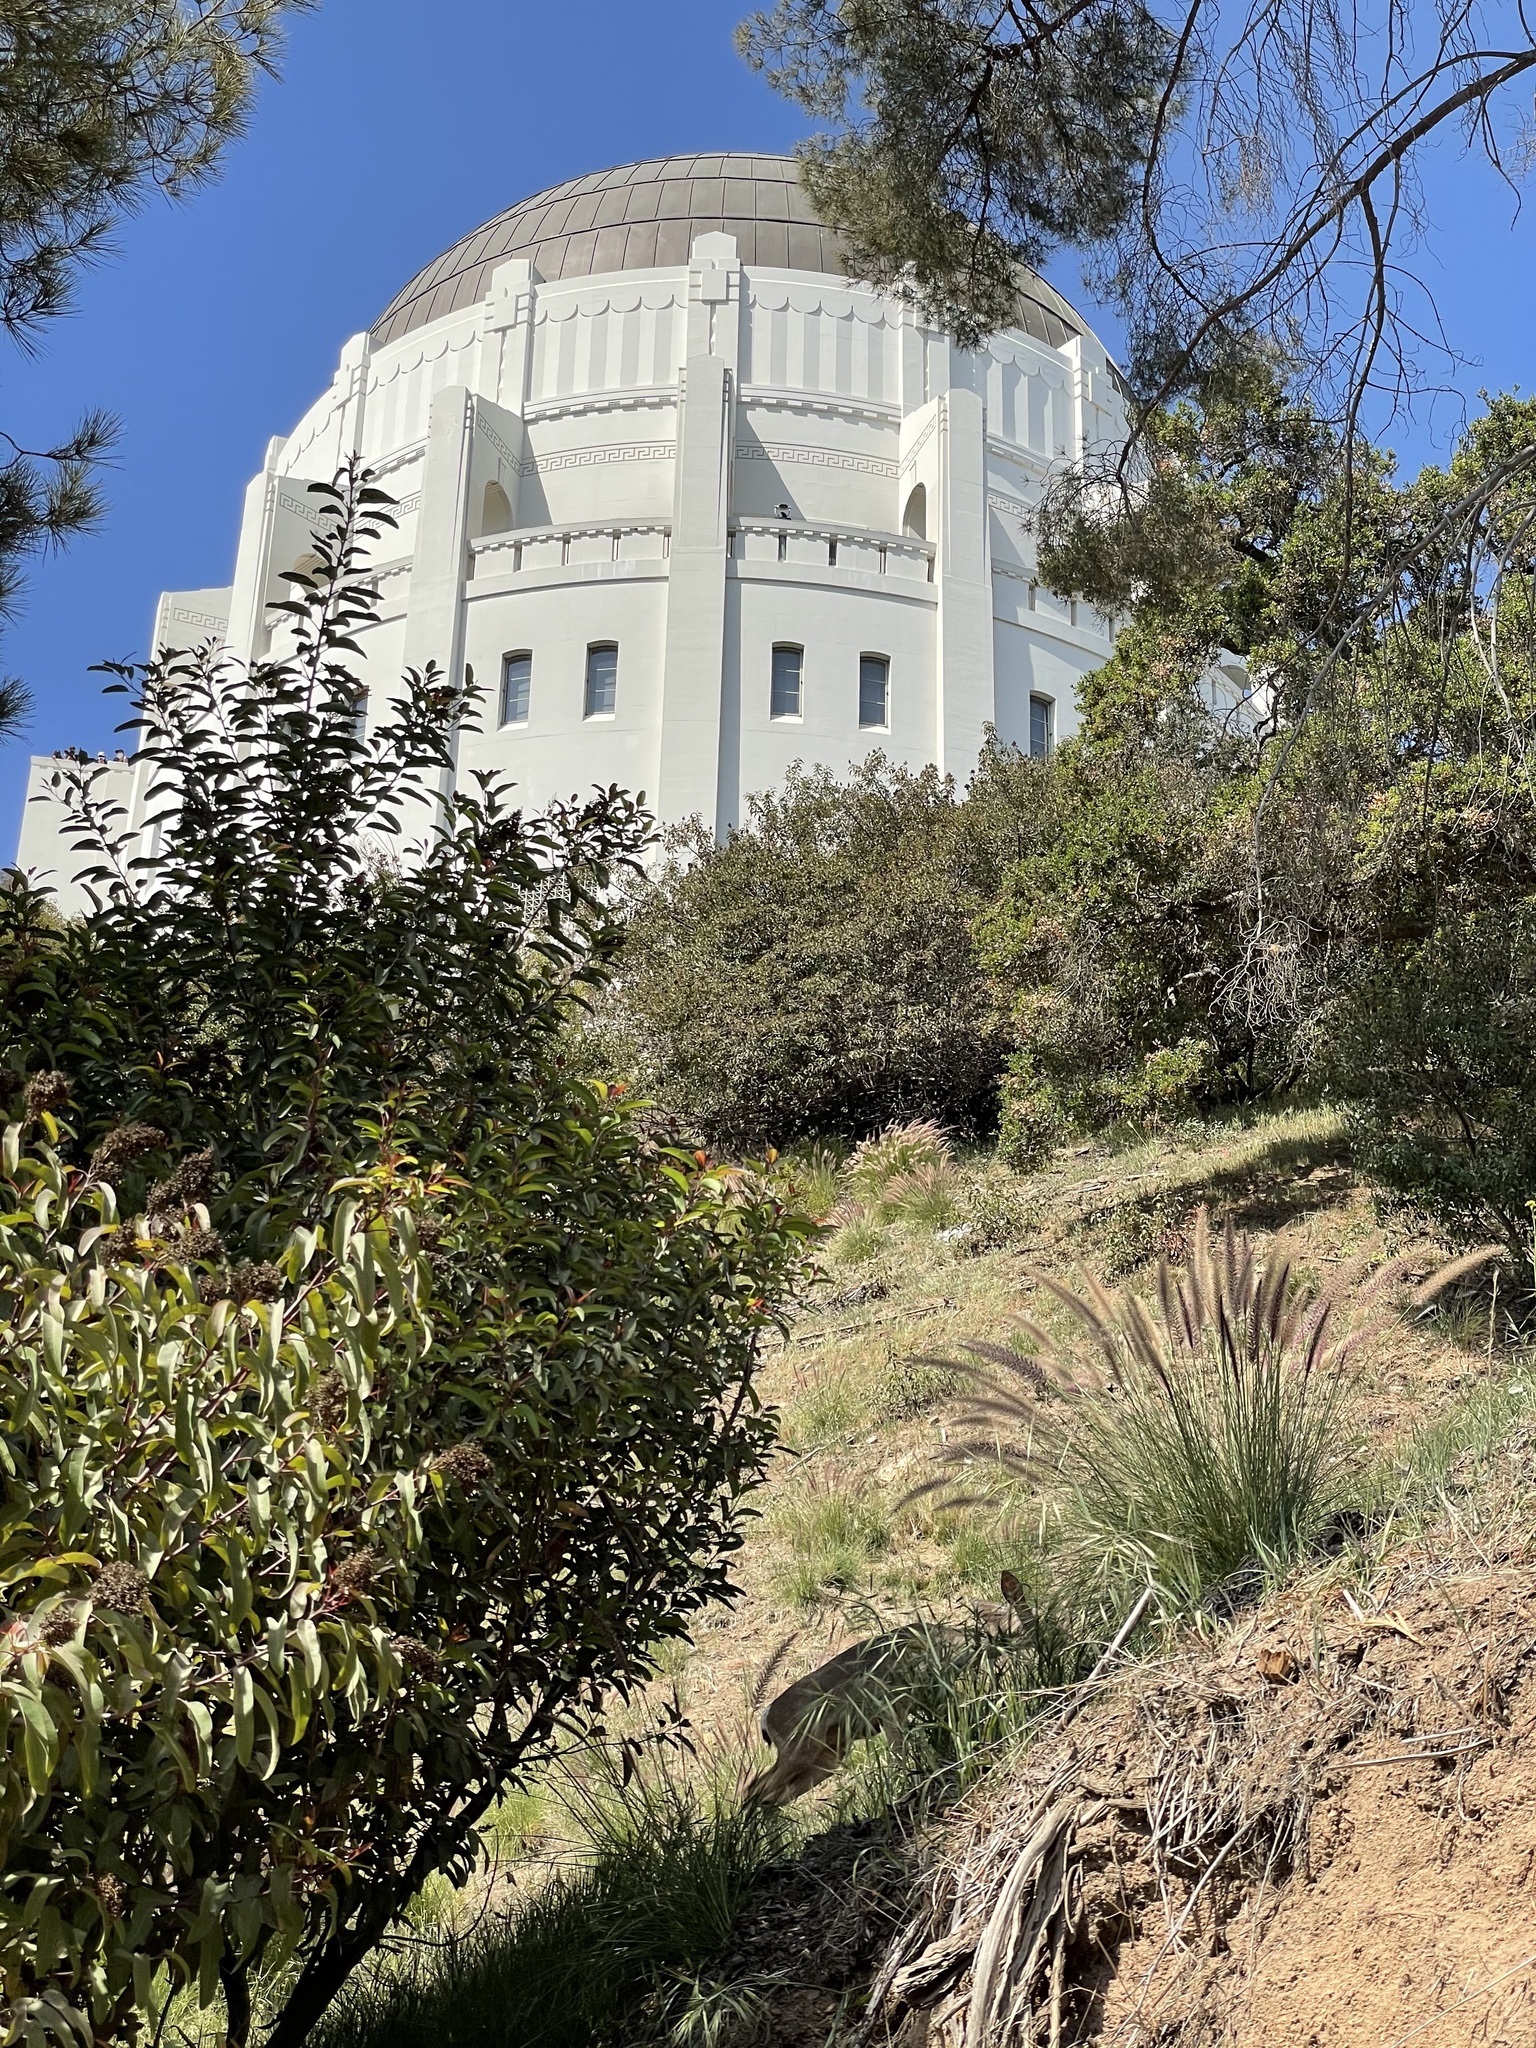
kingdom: Animalia
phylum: Chordata
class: Mammalia
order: Artiodactyla
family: Cervidae
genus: Odocoileus
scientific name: Odocoileus hemionus
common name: Mule deer
